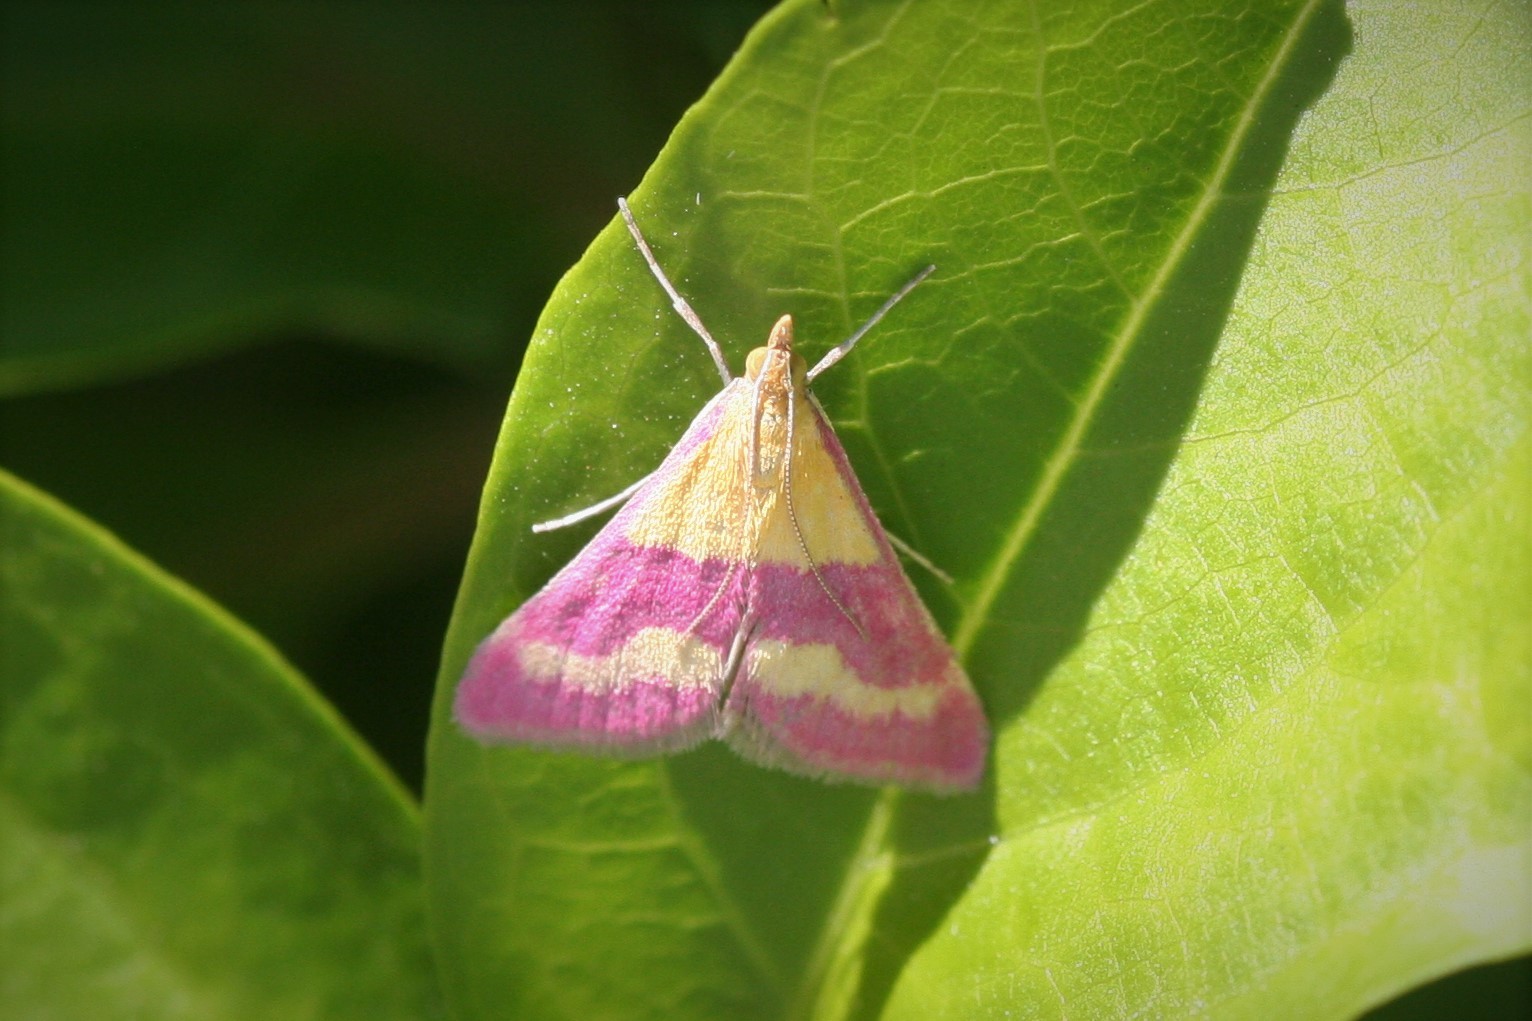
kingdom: Animalia
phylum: Arthropoda
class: Insecta
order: Lepidoptera
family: Crambidae
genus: Pyrausta
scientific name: Pyrausta virginalis
